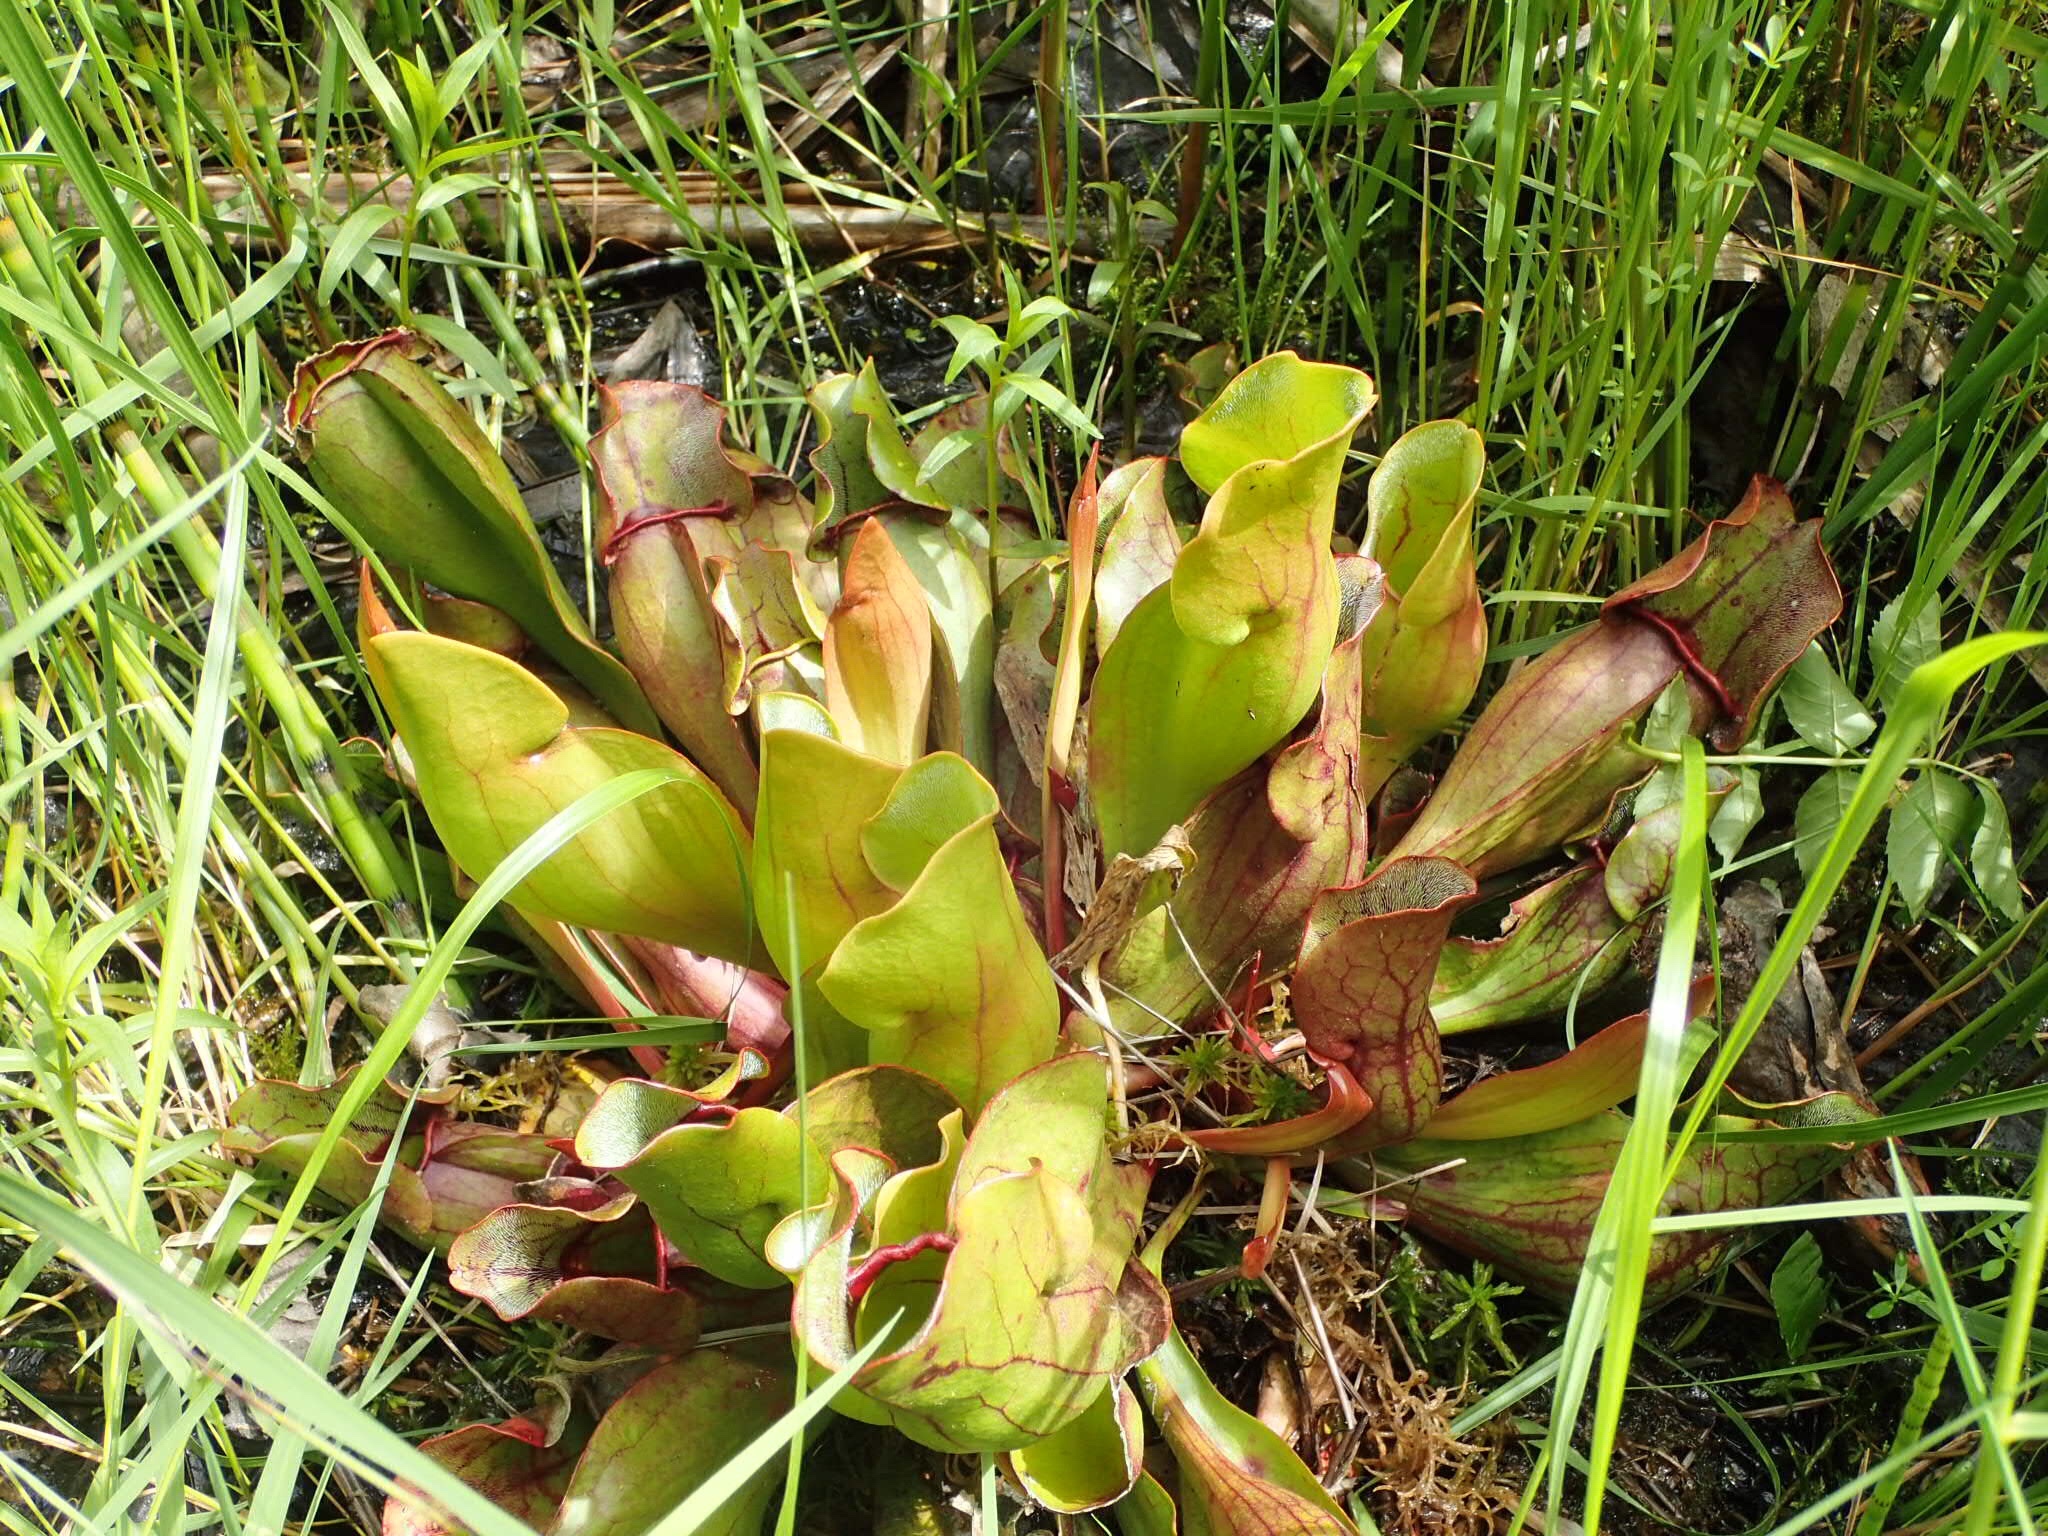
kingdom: Plantae
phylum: Tracheophyta
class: Magnoliopsida
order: Ericales
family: Sarraceniaceae
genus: Sarracenia
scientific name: Sarracenia purpurea
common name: Pitcherplant
